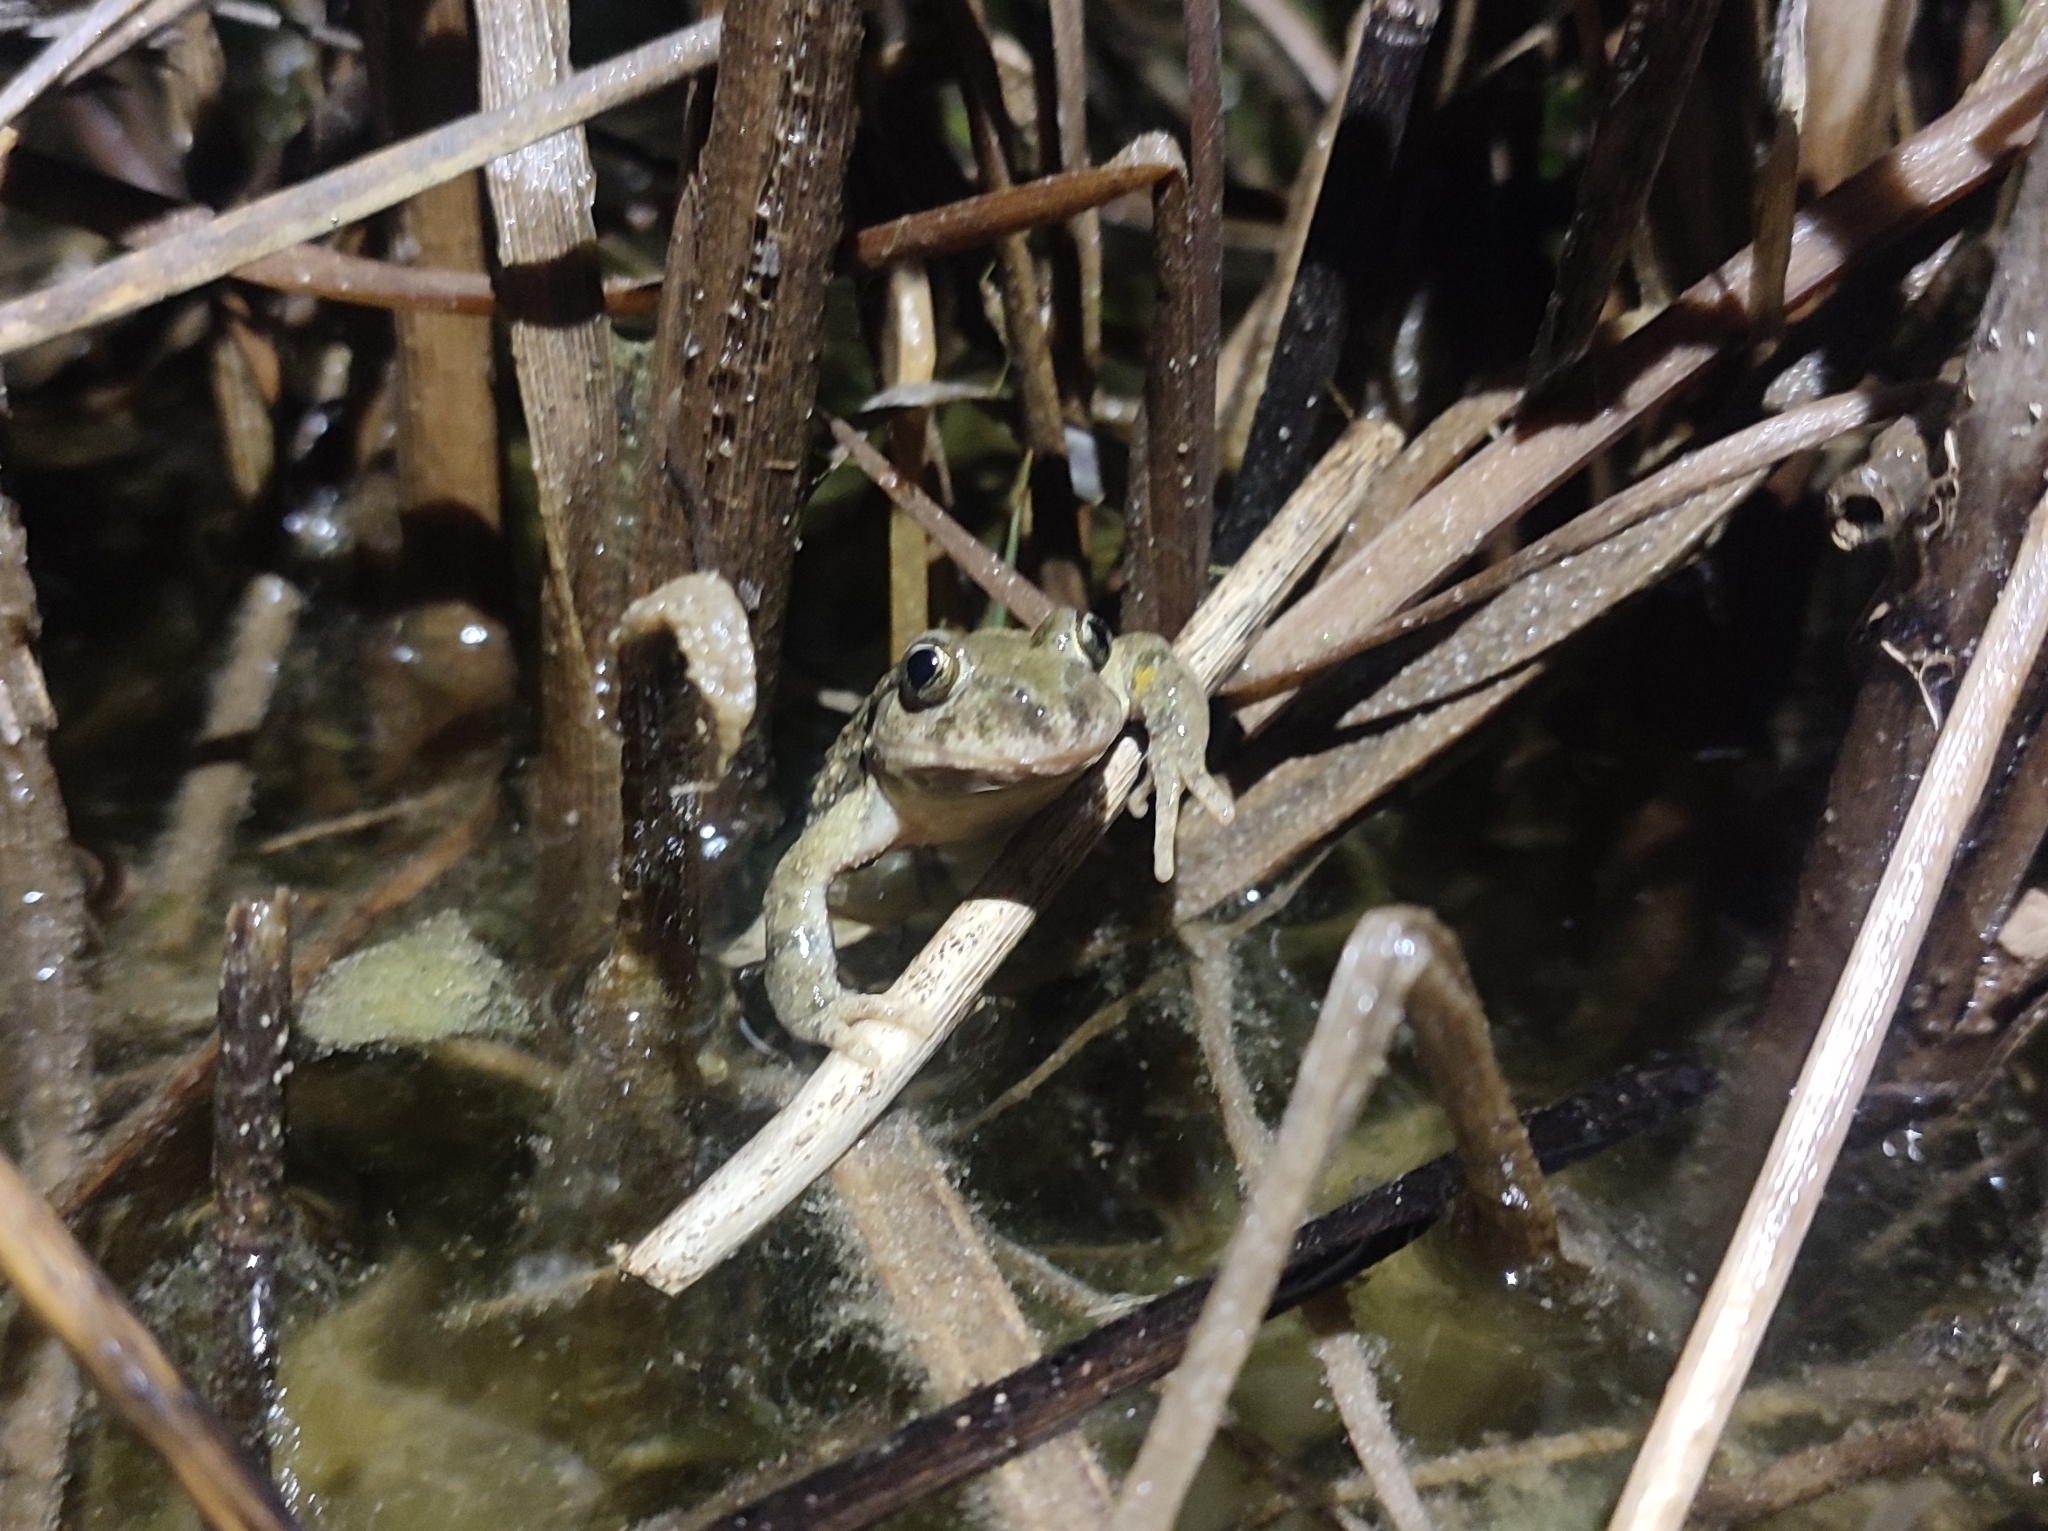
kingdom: Animalia
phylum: Chordata
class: Amphibia
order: Anura
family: Pelodytidae
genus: Pelodytes
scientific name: Pelodytes punctatus
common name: Parsley frog
